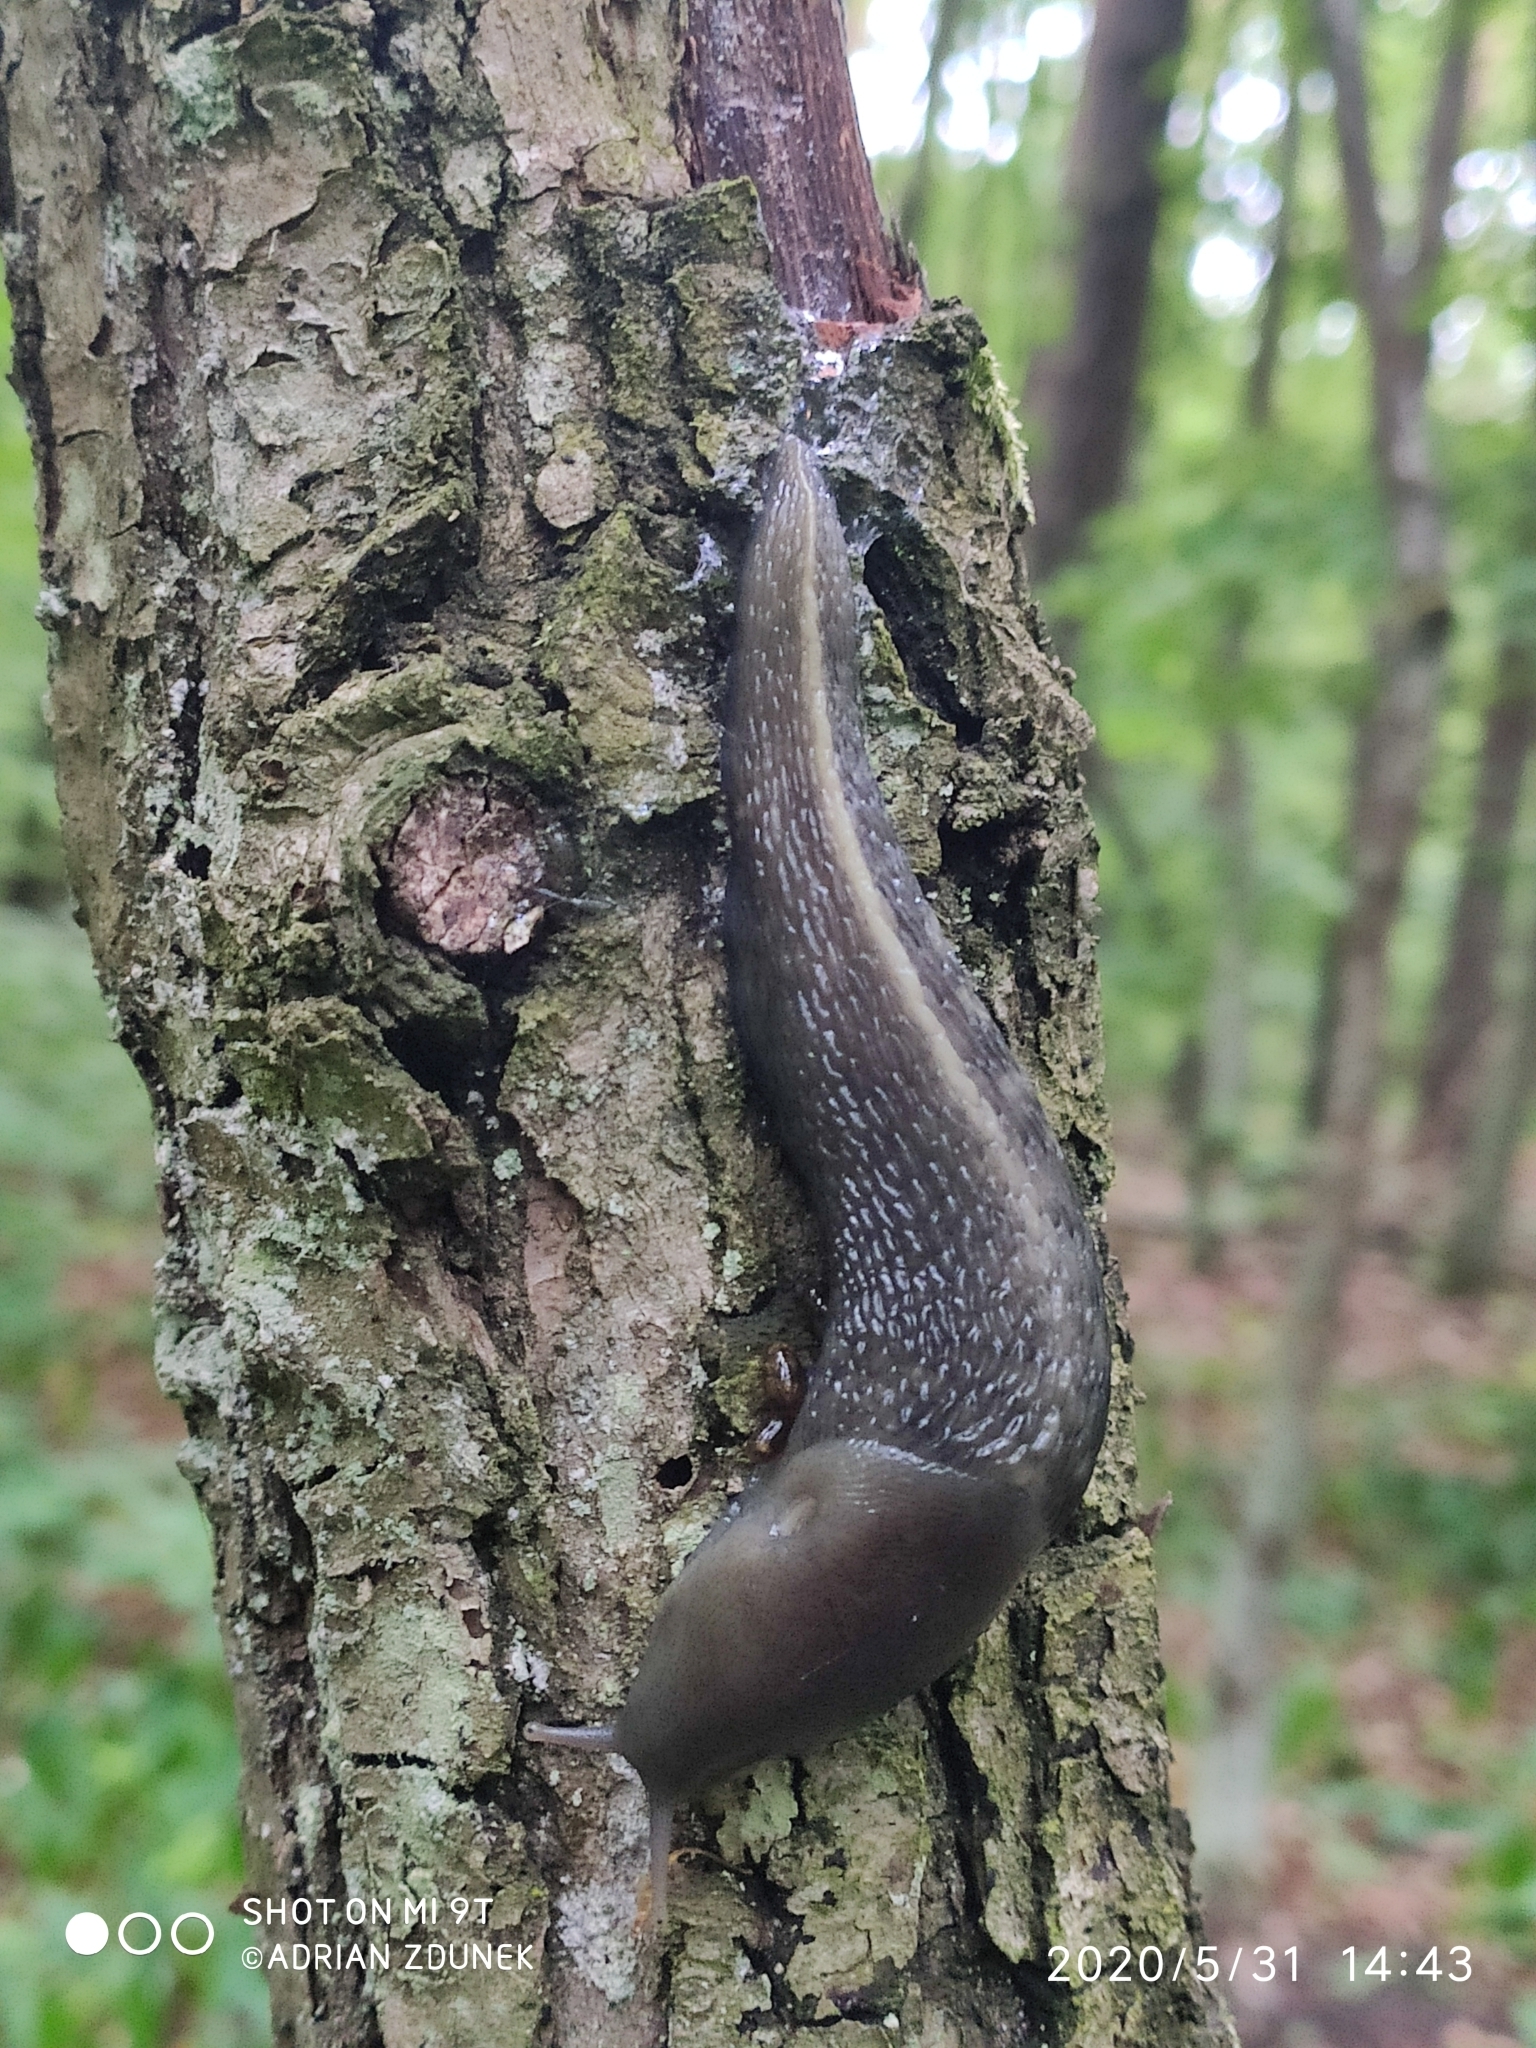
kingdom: Animalia
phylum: Mollusca
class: Gastropoda
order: Stylommatophora
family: Limacidae
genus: Limax
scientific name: Limax cinereoniger
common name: Ash-black slug
